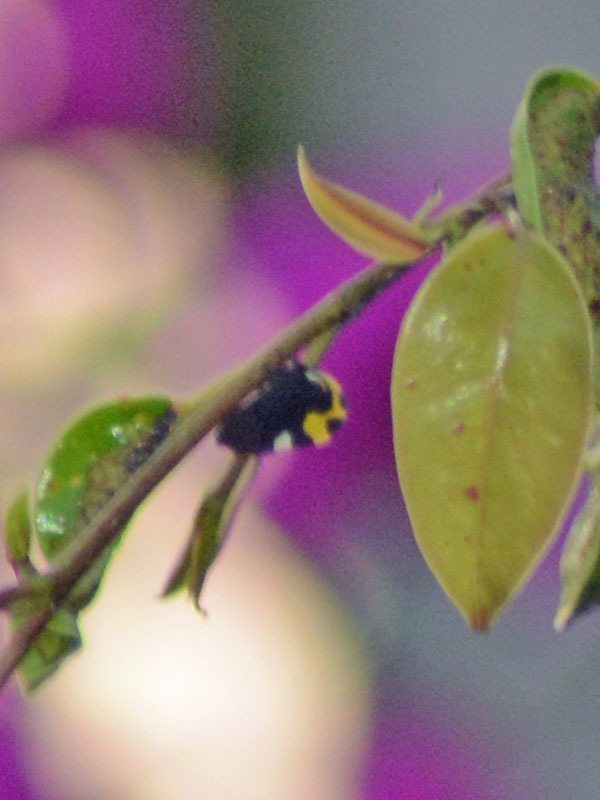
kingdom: Animalia
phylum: Arthropoda
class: Insecta
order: Hemiptera
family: Membracidae
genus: Membracis
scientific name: Membracis mexicana
